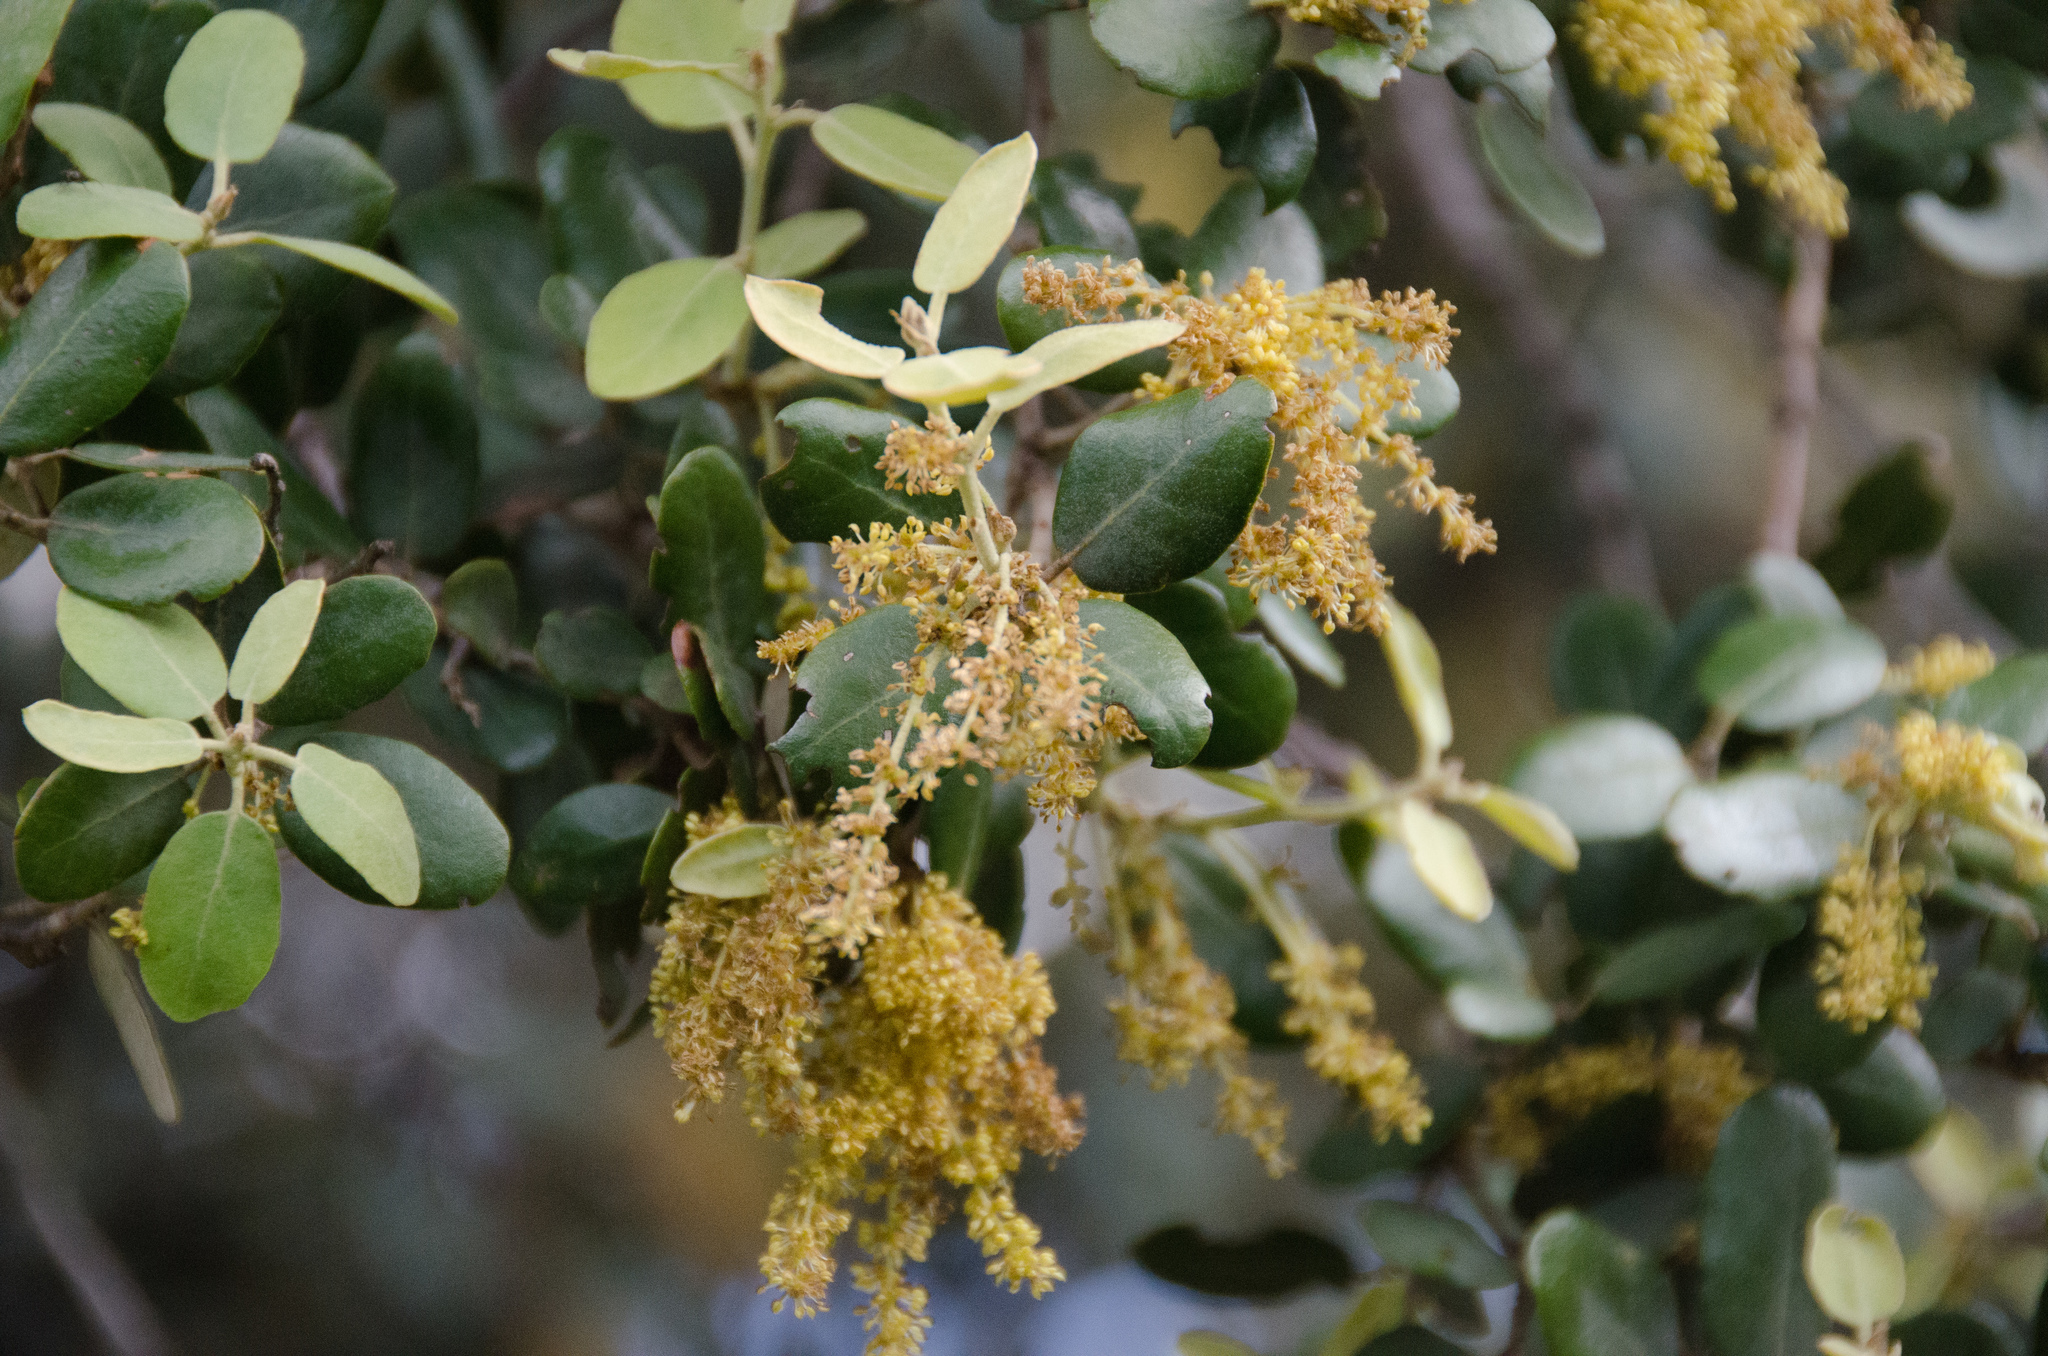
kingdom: Plantae
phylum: Tracheophyta
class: Magnoliopsida
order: Fagales
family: Fagaceae
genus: Quercus
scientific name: Quercus rotundifolia
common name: Holm oak
